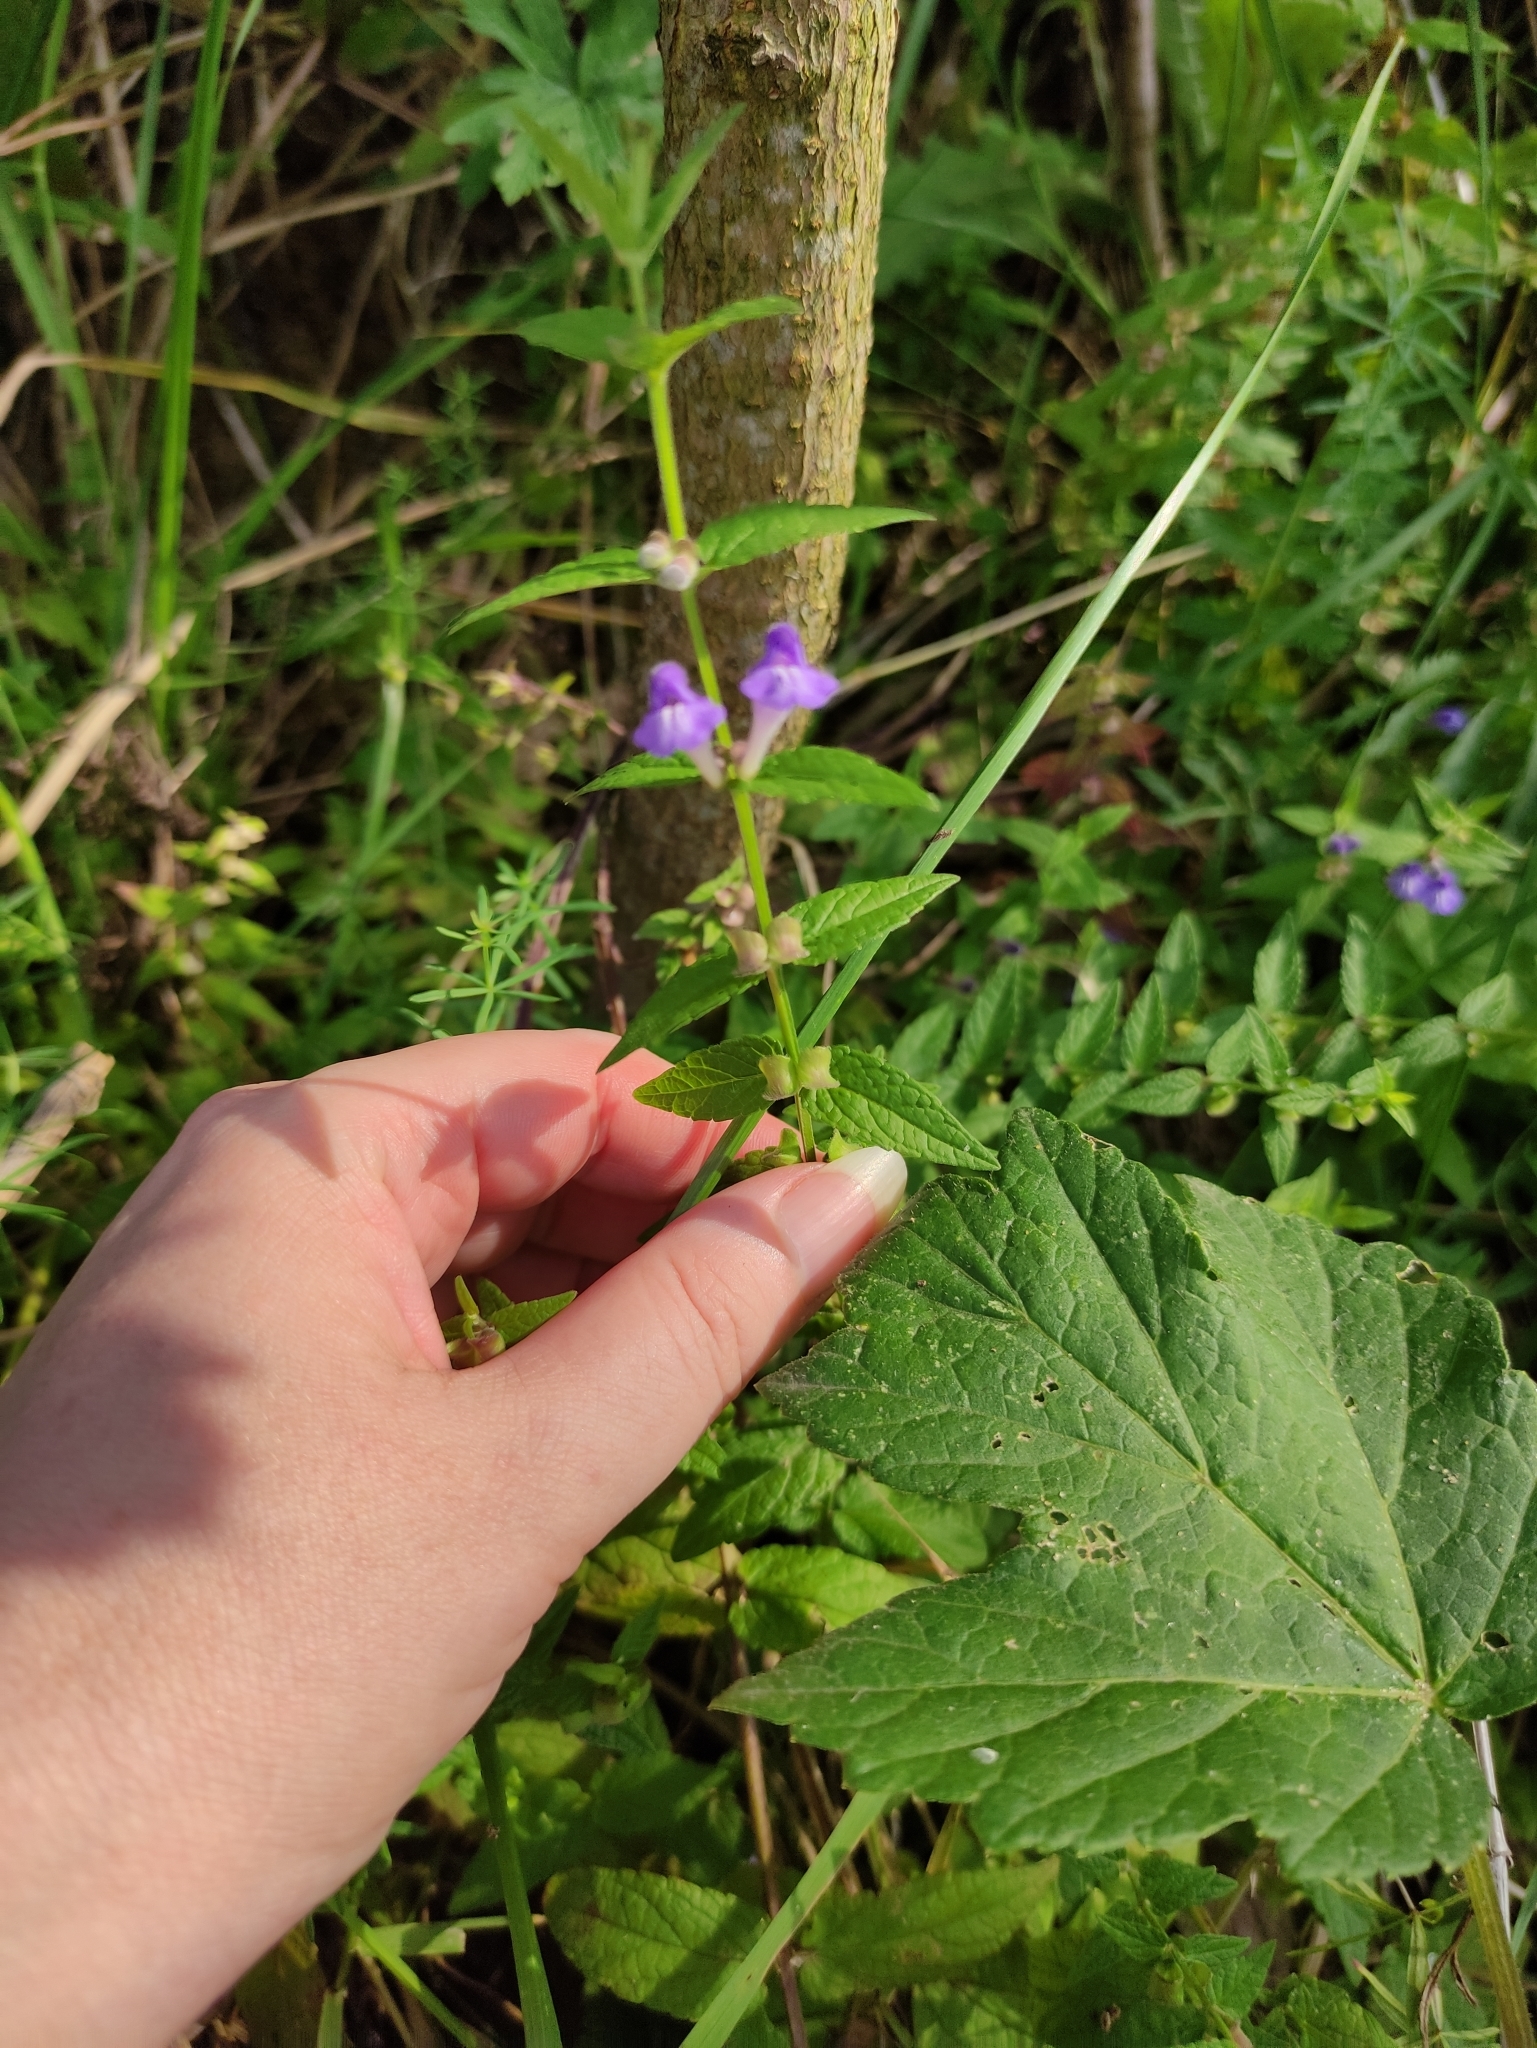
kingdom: Plantae
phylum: Tracheophyta
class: Magnoliopsida
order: Lamiales
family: Lamiaceae
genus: Scutellaria
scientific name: Scutellaria galericulata
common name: Skullcap
